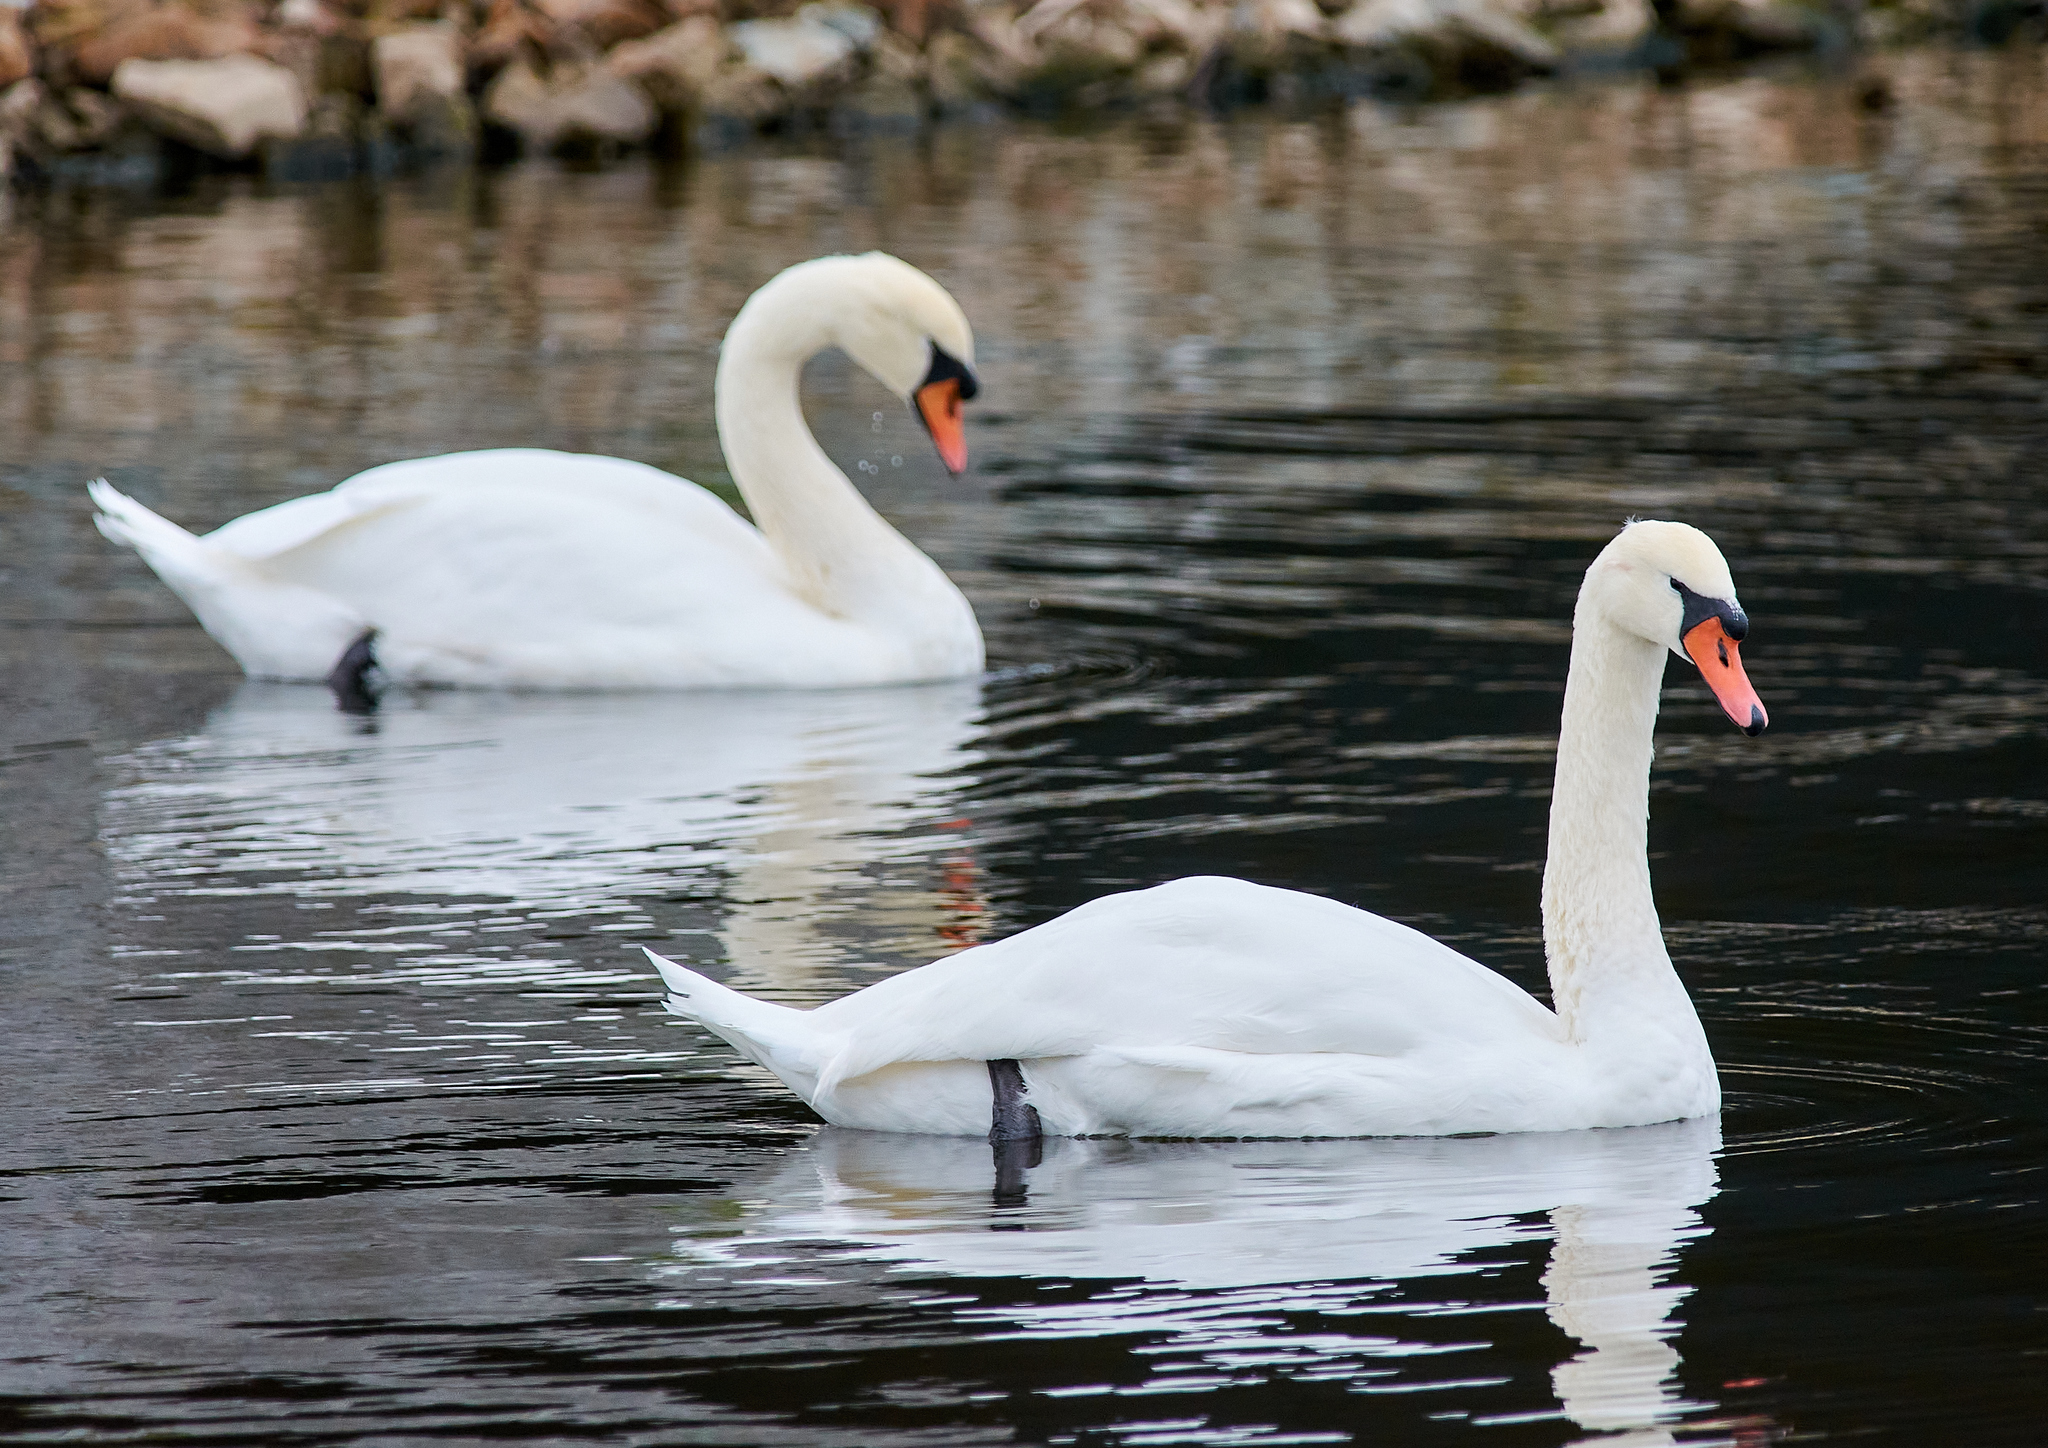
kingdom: Animalia
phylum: Chordata
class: Aves
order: Anseriformes
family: Anatidae
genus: Cygnus
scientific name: Cygnus olor
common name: Mute swan
